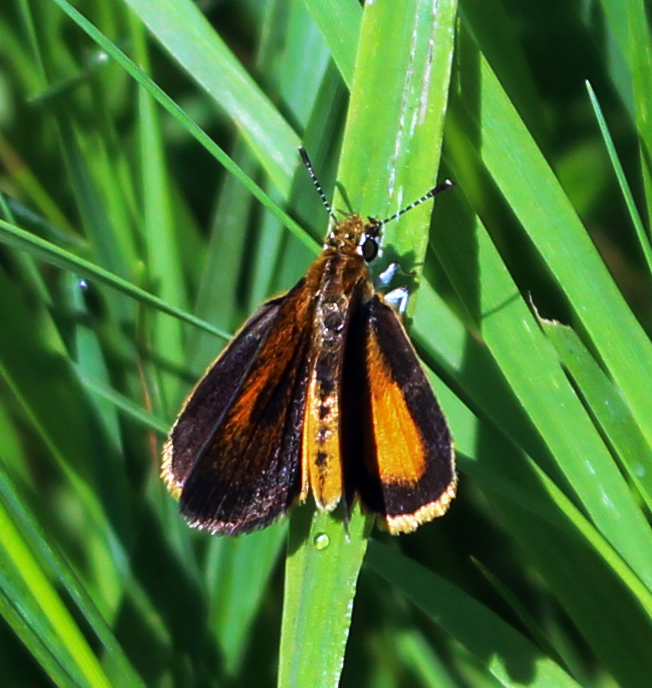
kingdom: Animalia
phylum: Arthropoda
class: Insecta
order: Lepidoptera
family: Hesperiidae
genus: Ancyloxypha
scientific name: Ancyloxypha numitor
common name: Least skipper
